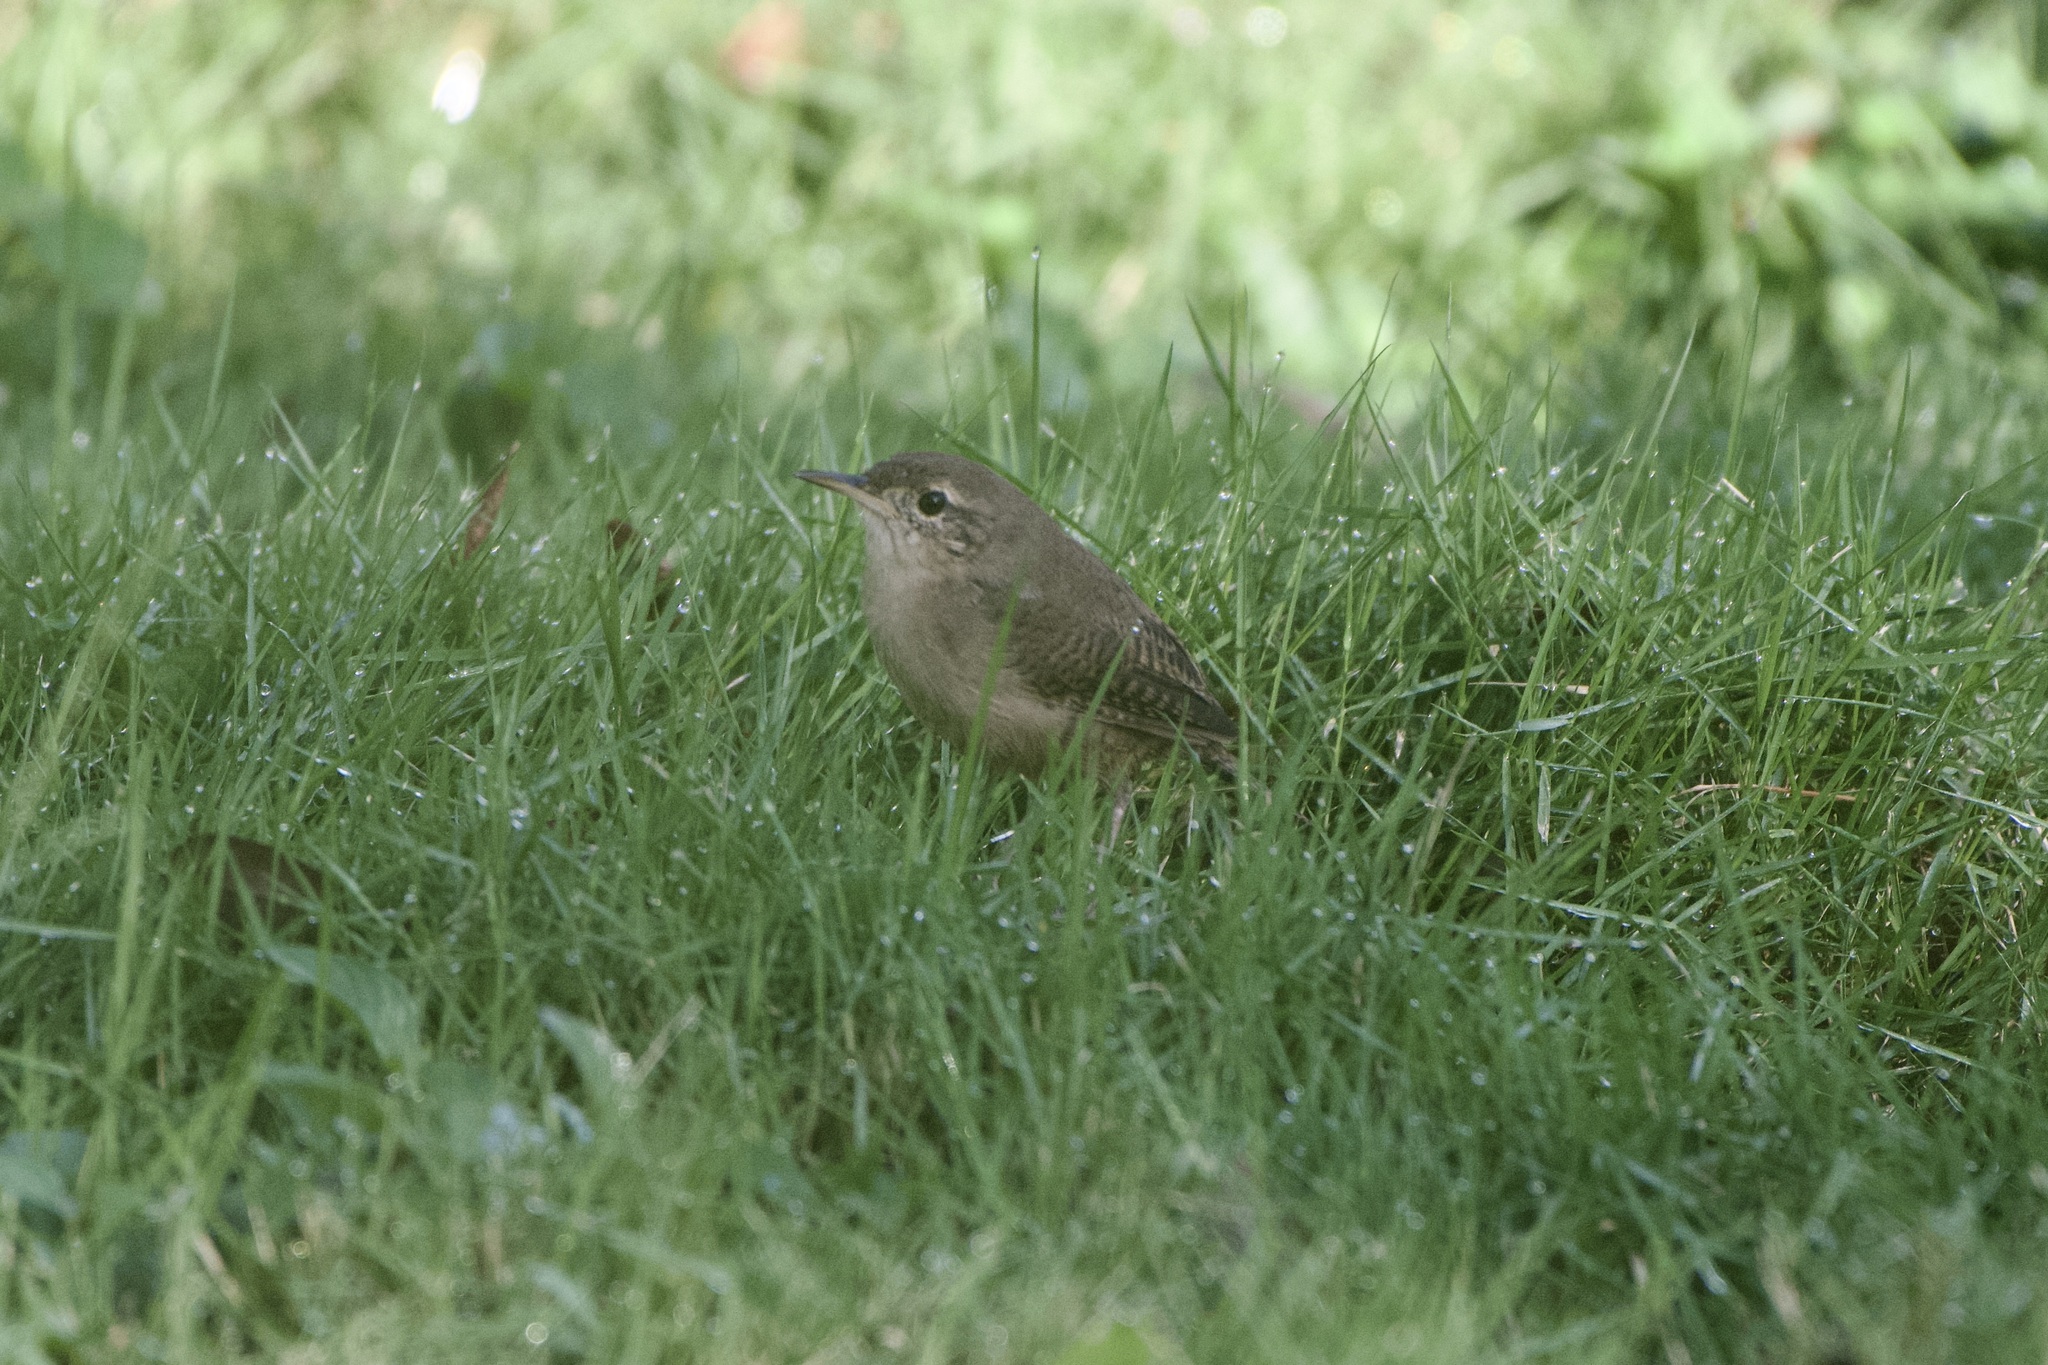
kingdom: Animalia
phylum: Chordata
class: Aves
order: Passeriformes
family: Troglodytidae
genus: Troglodytes
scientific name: Troglodytes aedon
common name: House wren
